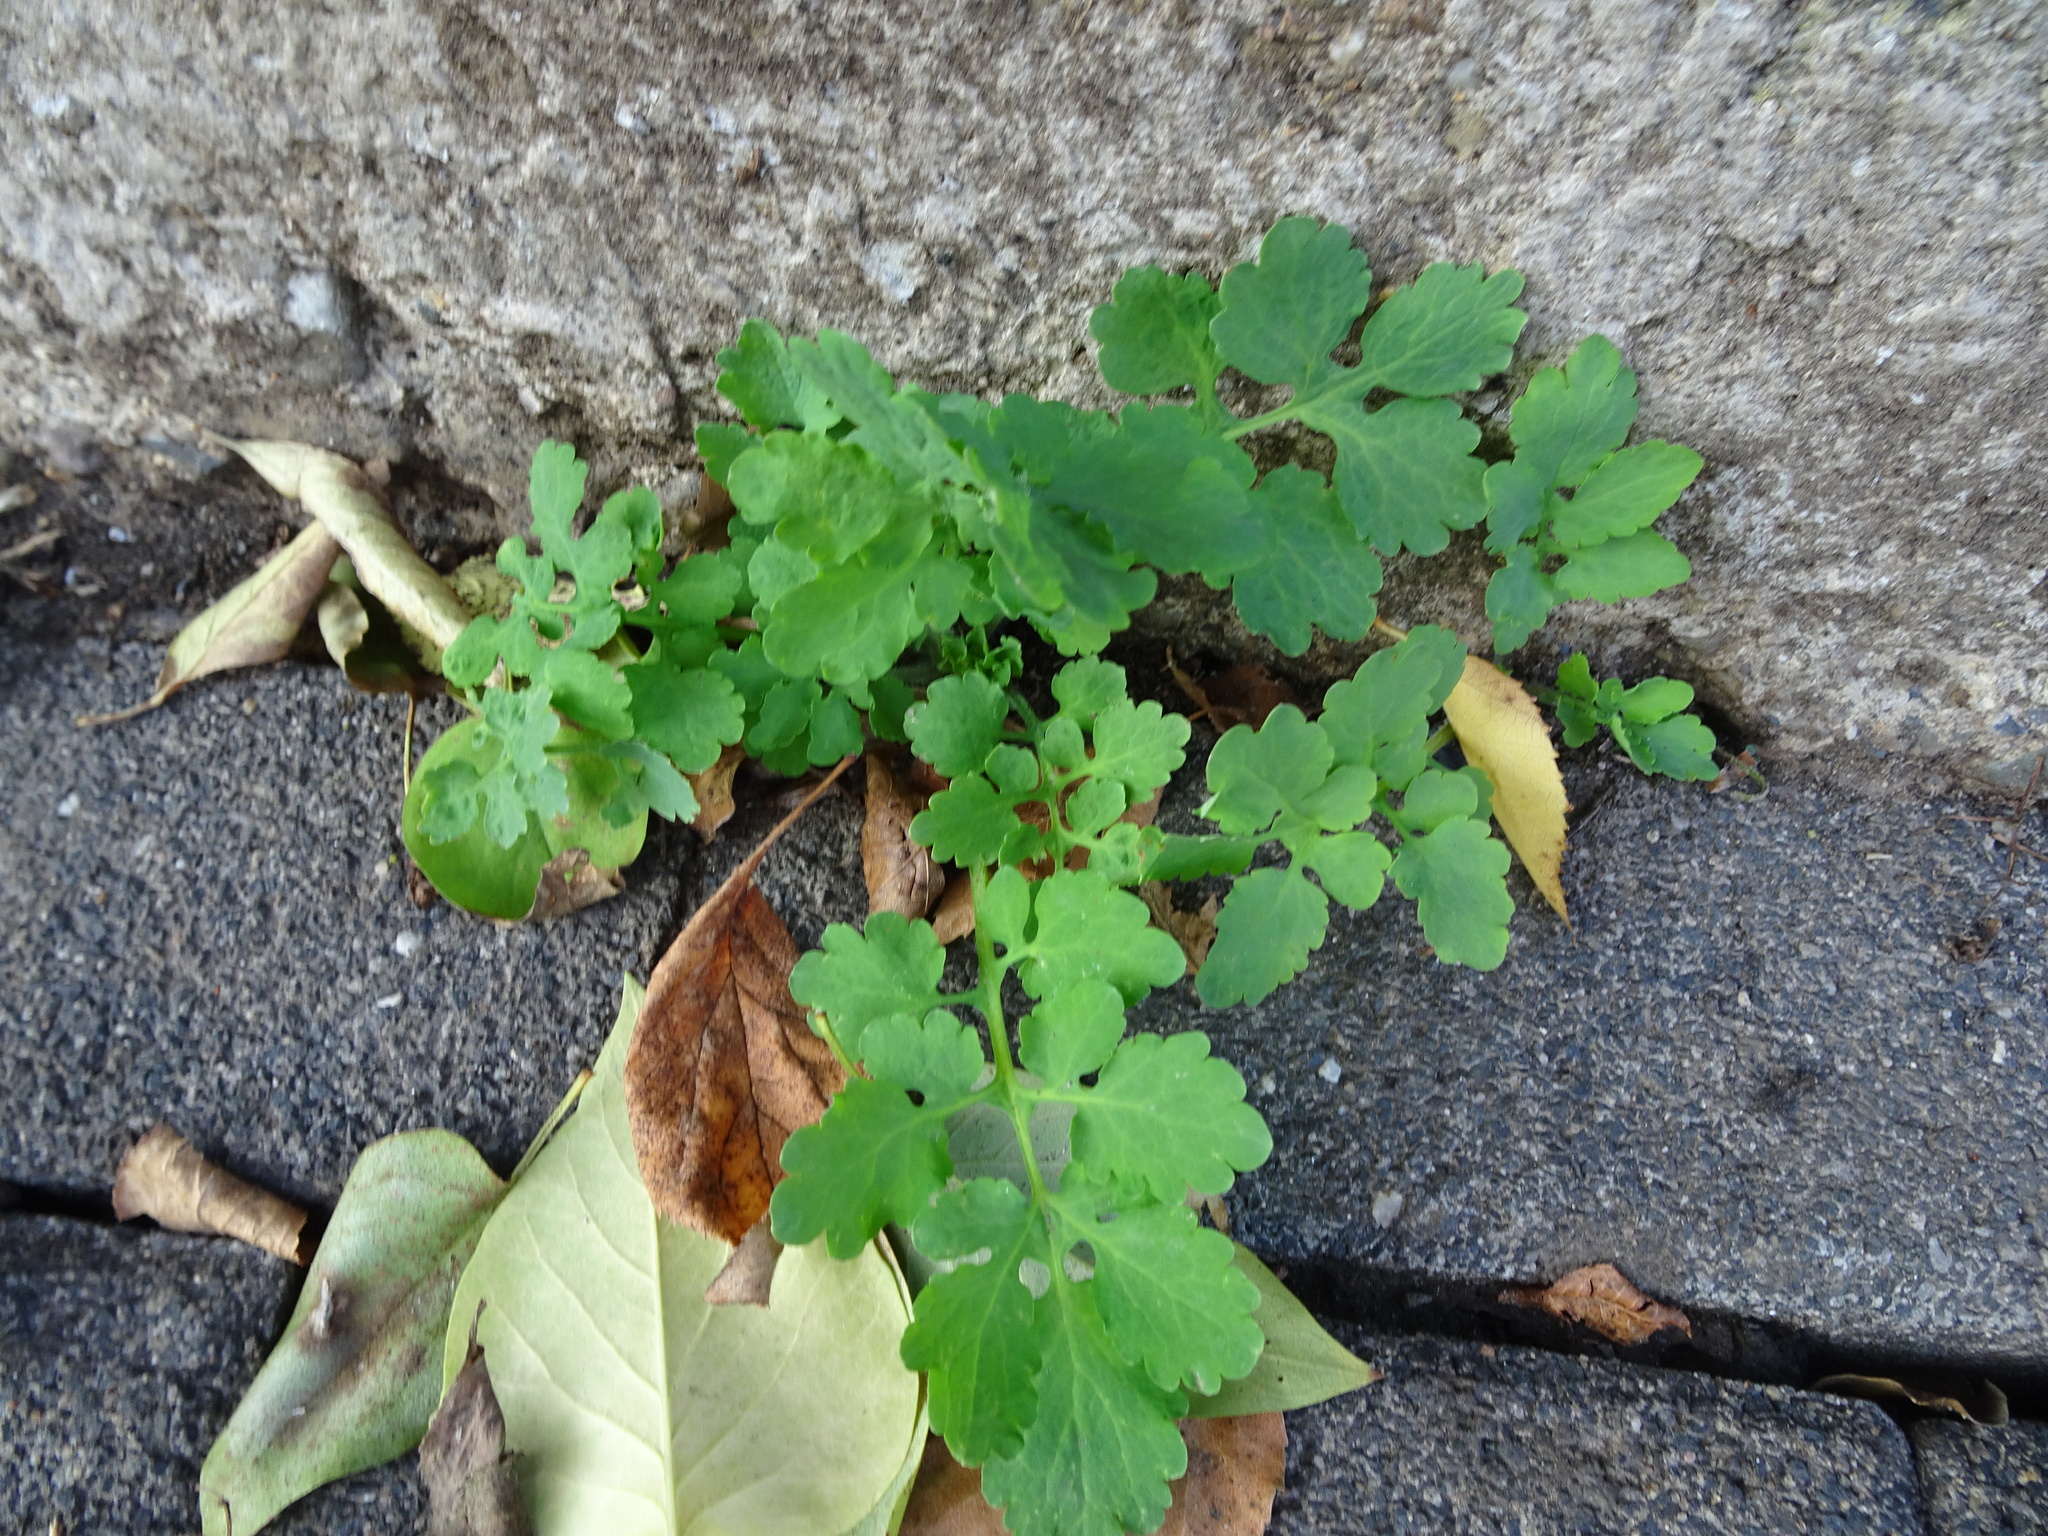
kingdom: Plantae
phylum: Tracheophyta
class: Magnoliopsida
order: Ranunculales
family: Papaveraceae
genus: Chelidonium
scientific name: Chelidonium majus
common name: Greater celandine
